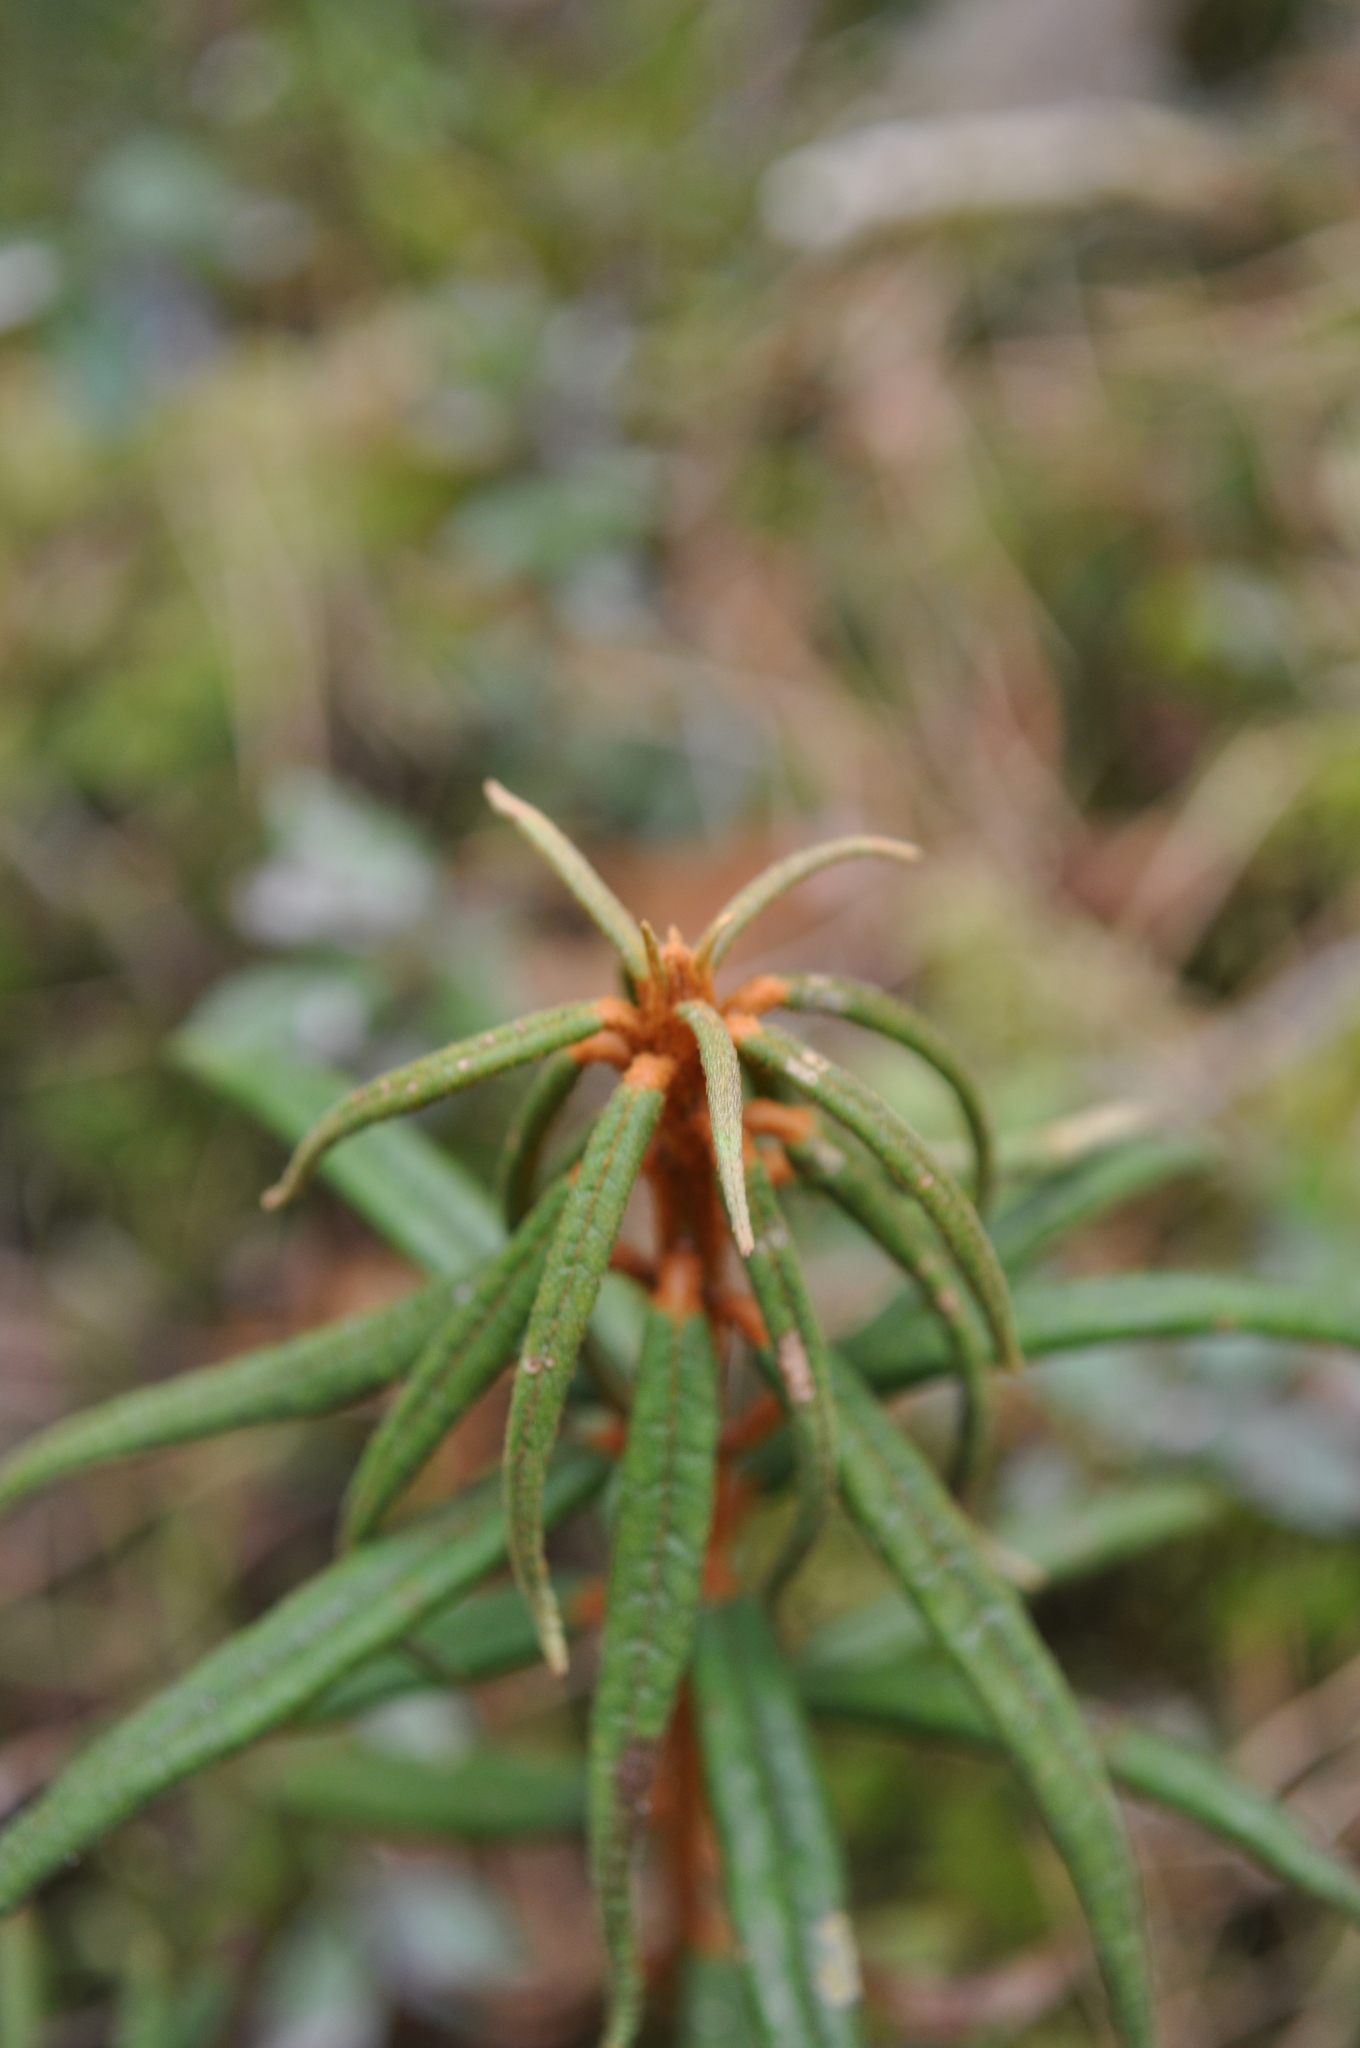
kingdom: Plantae
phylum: Tracheophyta
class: Magnoliopsida
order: Ericales
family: Ericaceae
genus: Rhododendron
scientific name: Rhododendron tomentosum
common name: Marsh labrador tea
